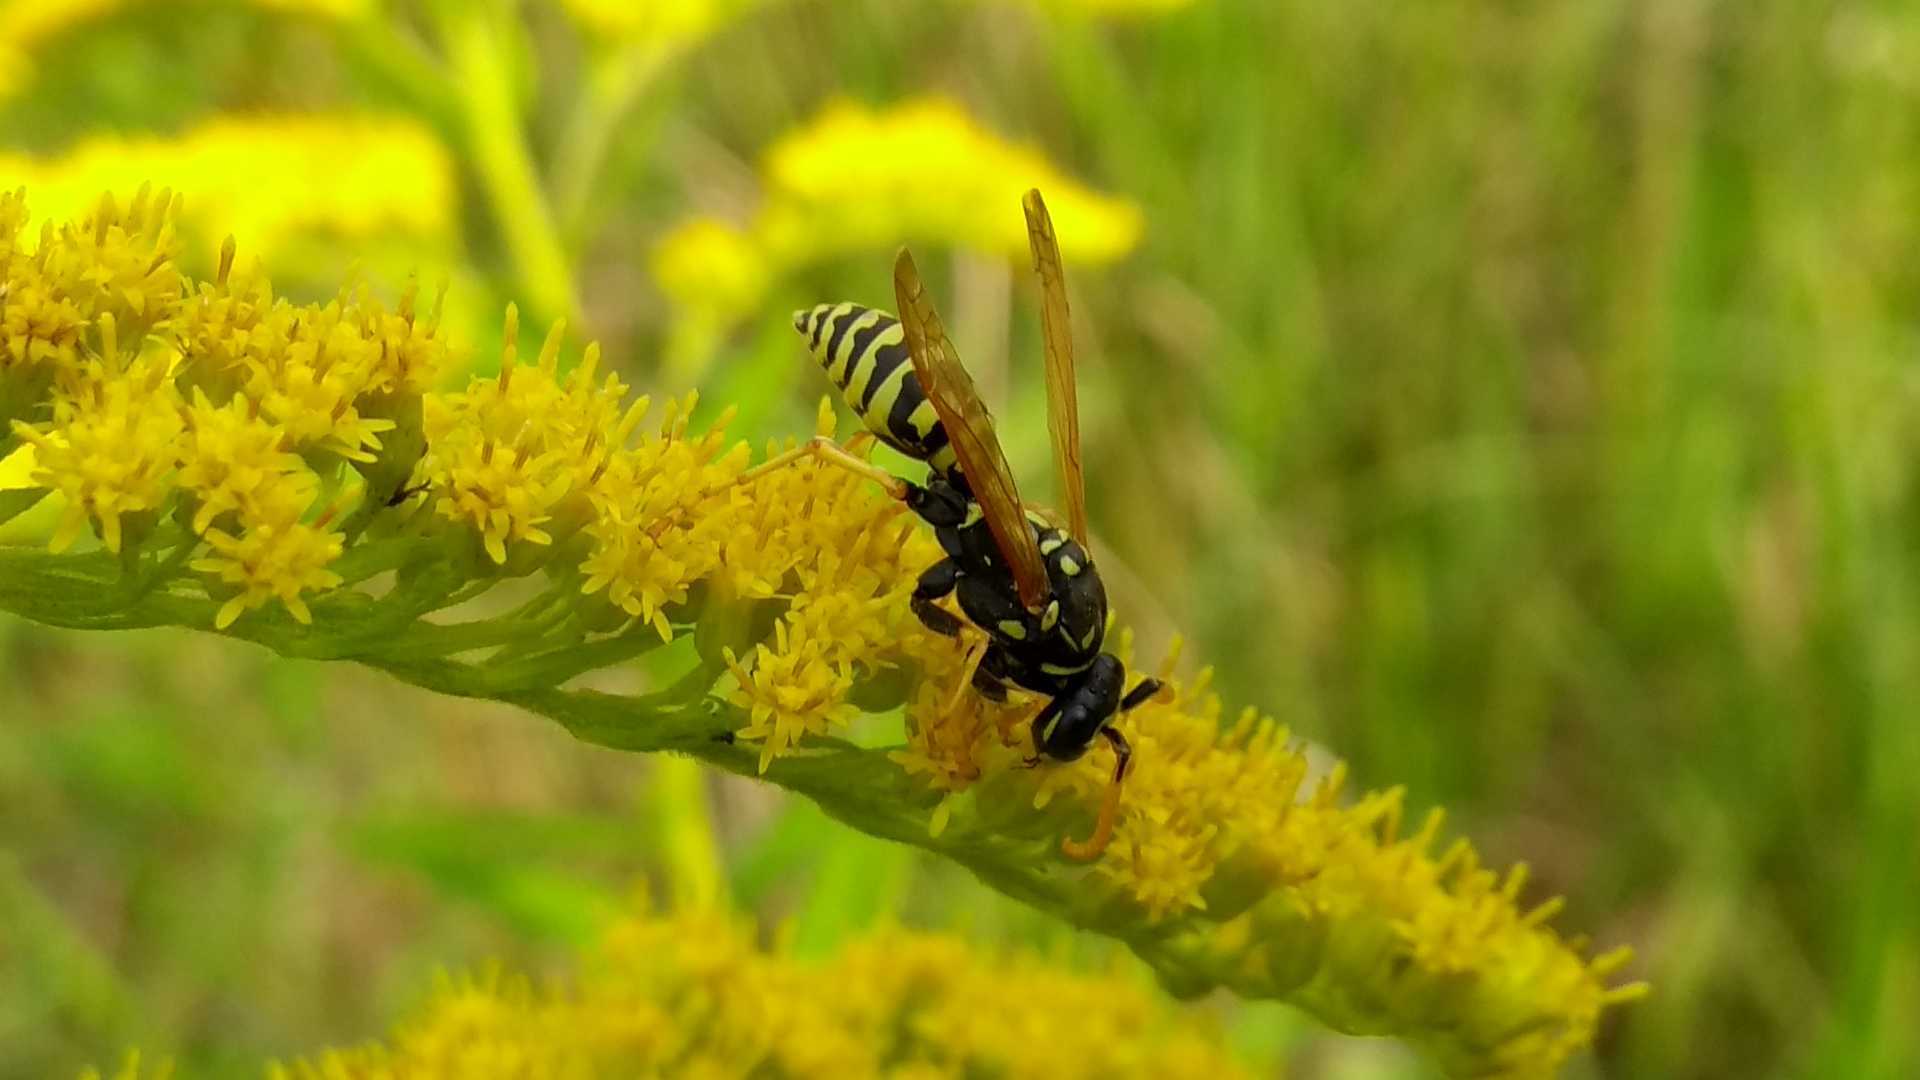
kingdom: Animalia
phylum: Arthropoda
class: Insecta
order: Hymenoptera
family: Eumenidae
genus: Polistes
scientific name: Polistes dominula
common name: Paper wasp
